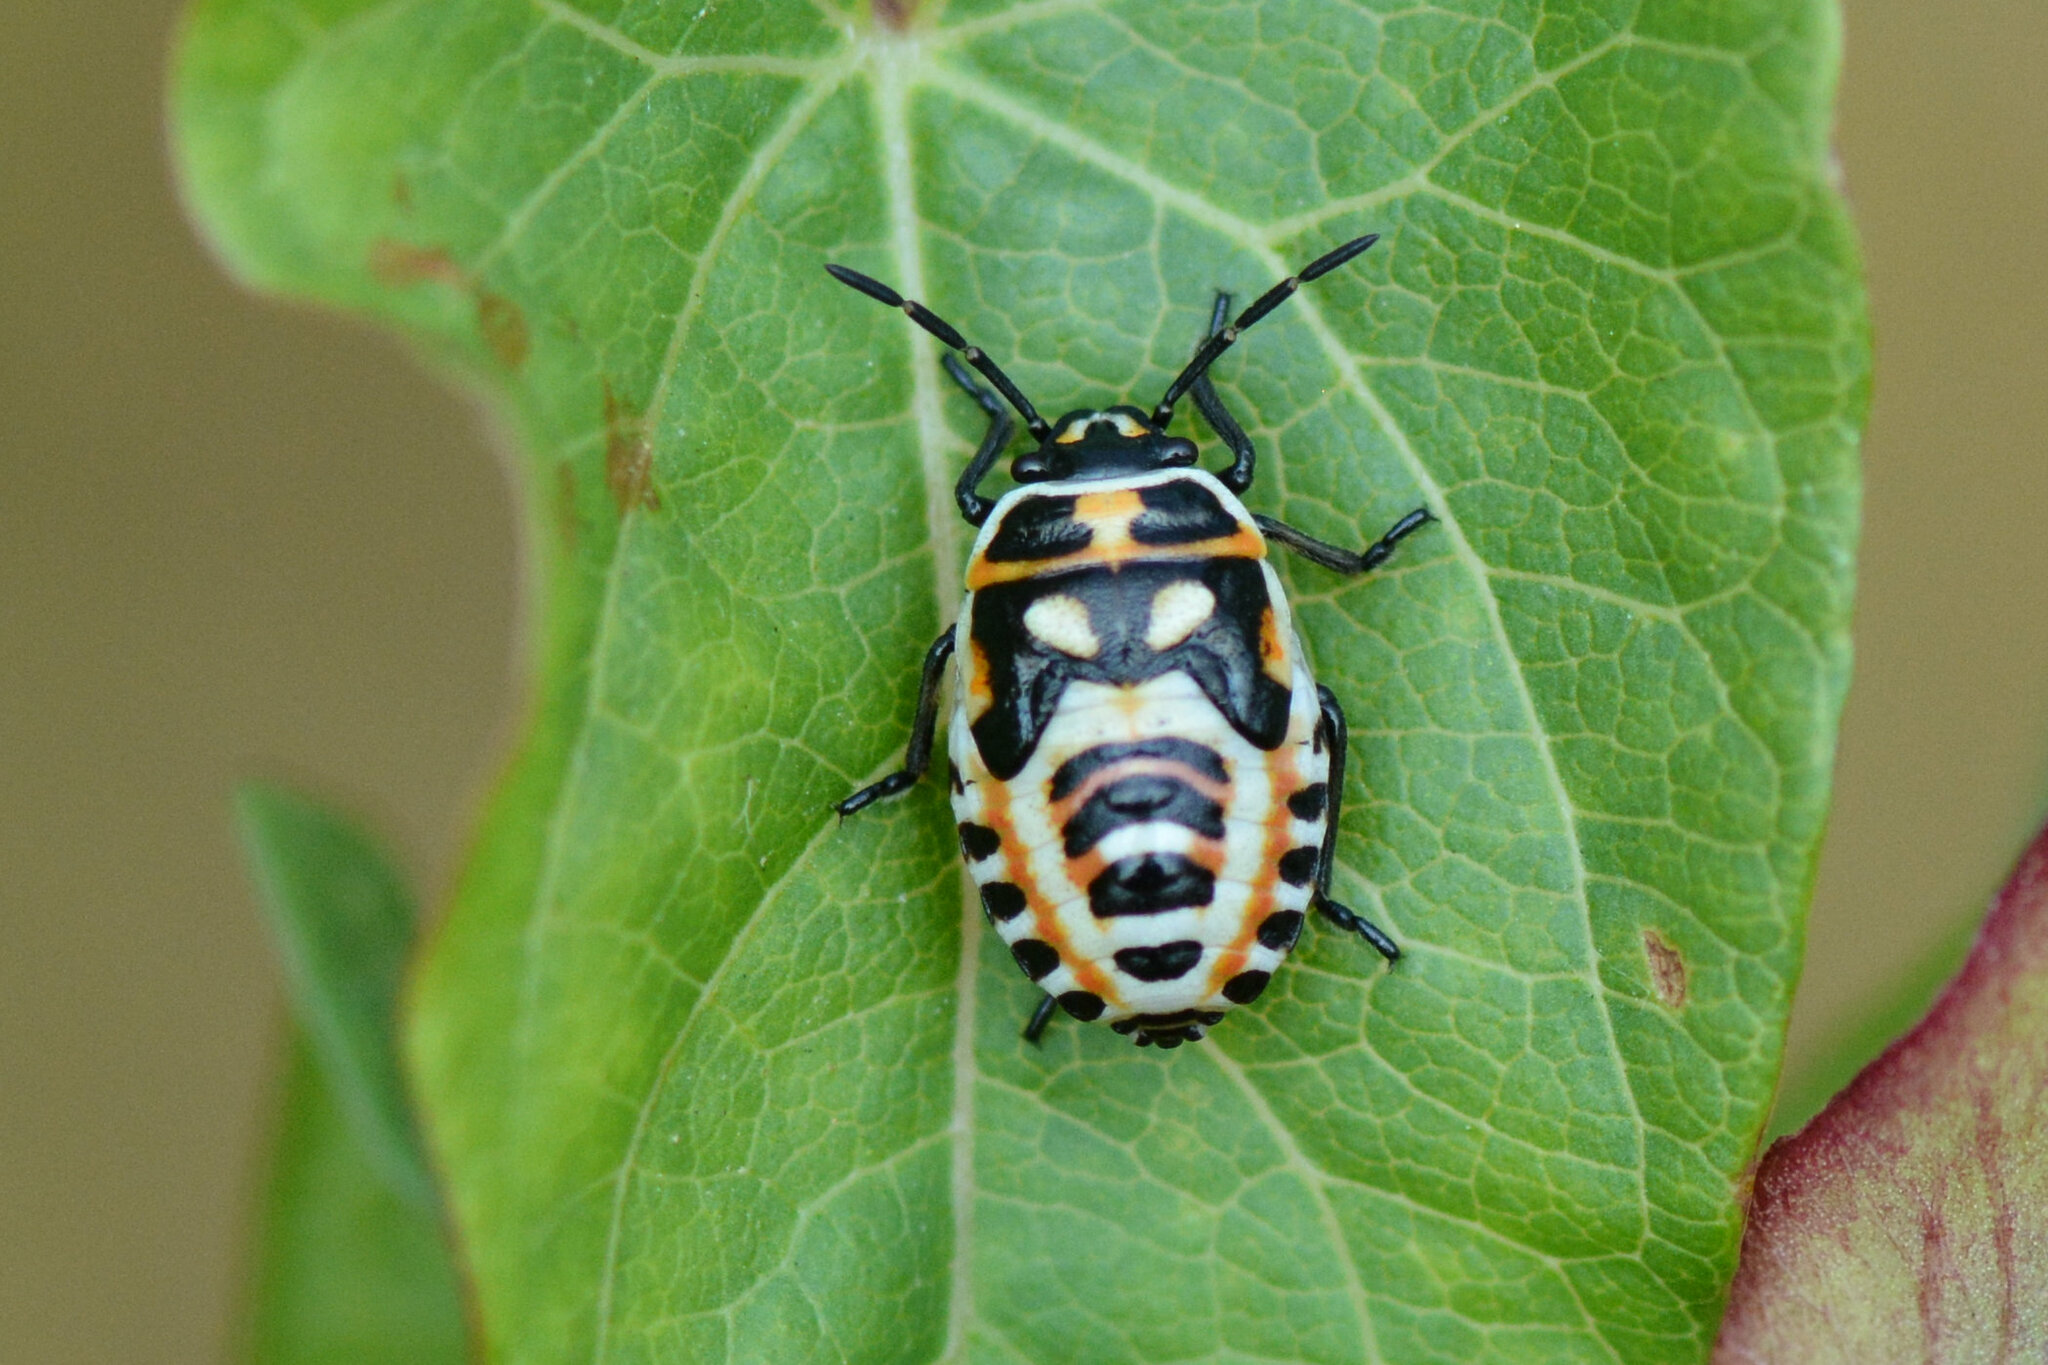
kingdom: Animalia
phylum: Arthropoda
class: Insecta
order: Hemiptera
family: Pentatomidae
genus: Eurydema
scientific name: Eurydema ornata
